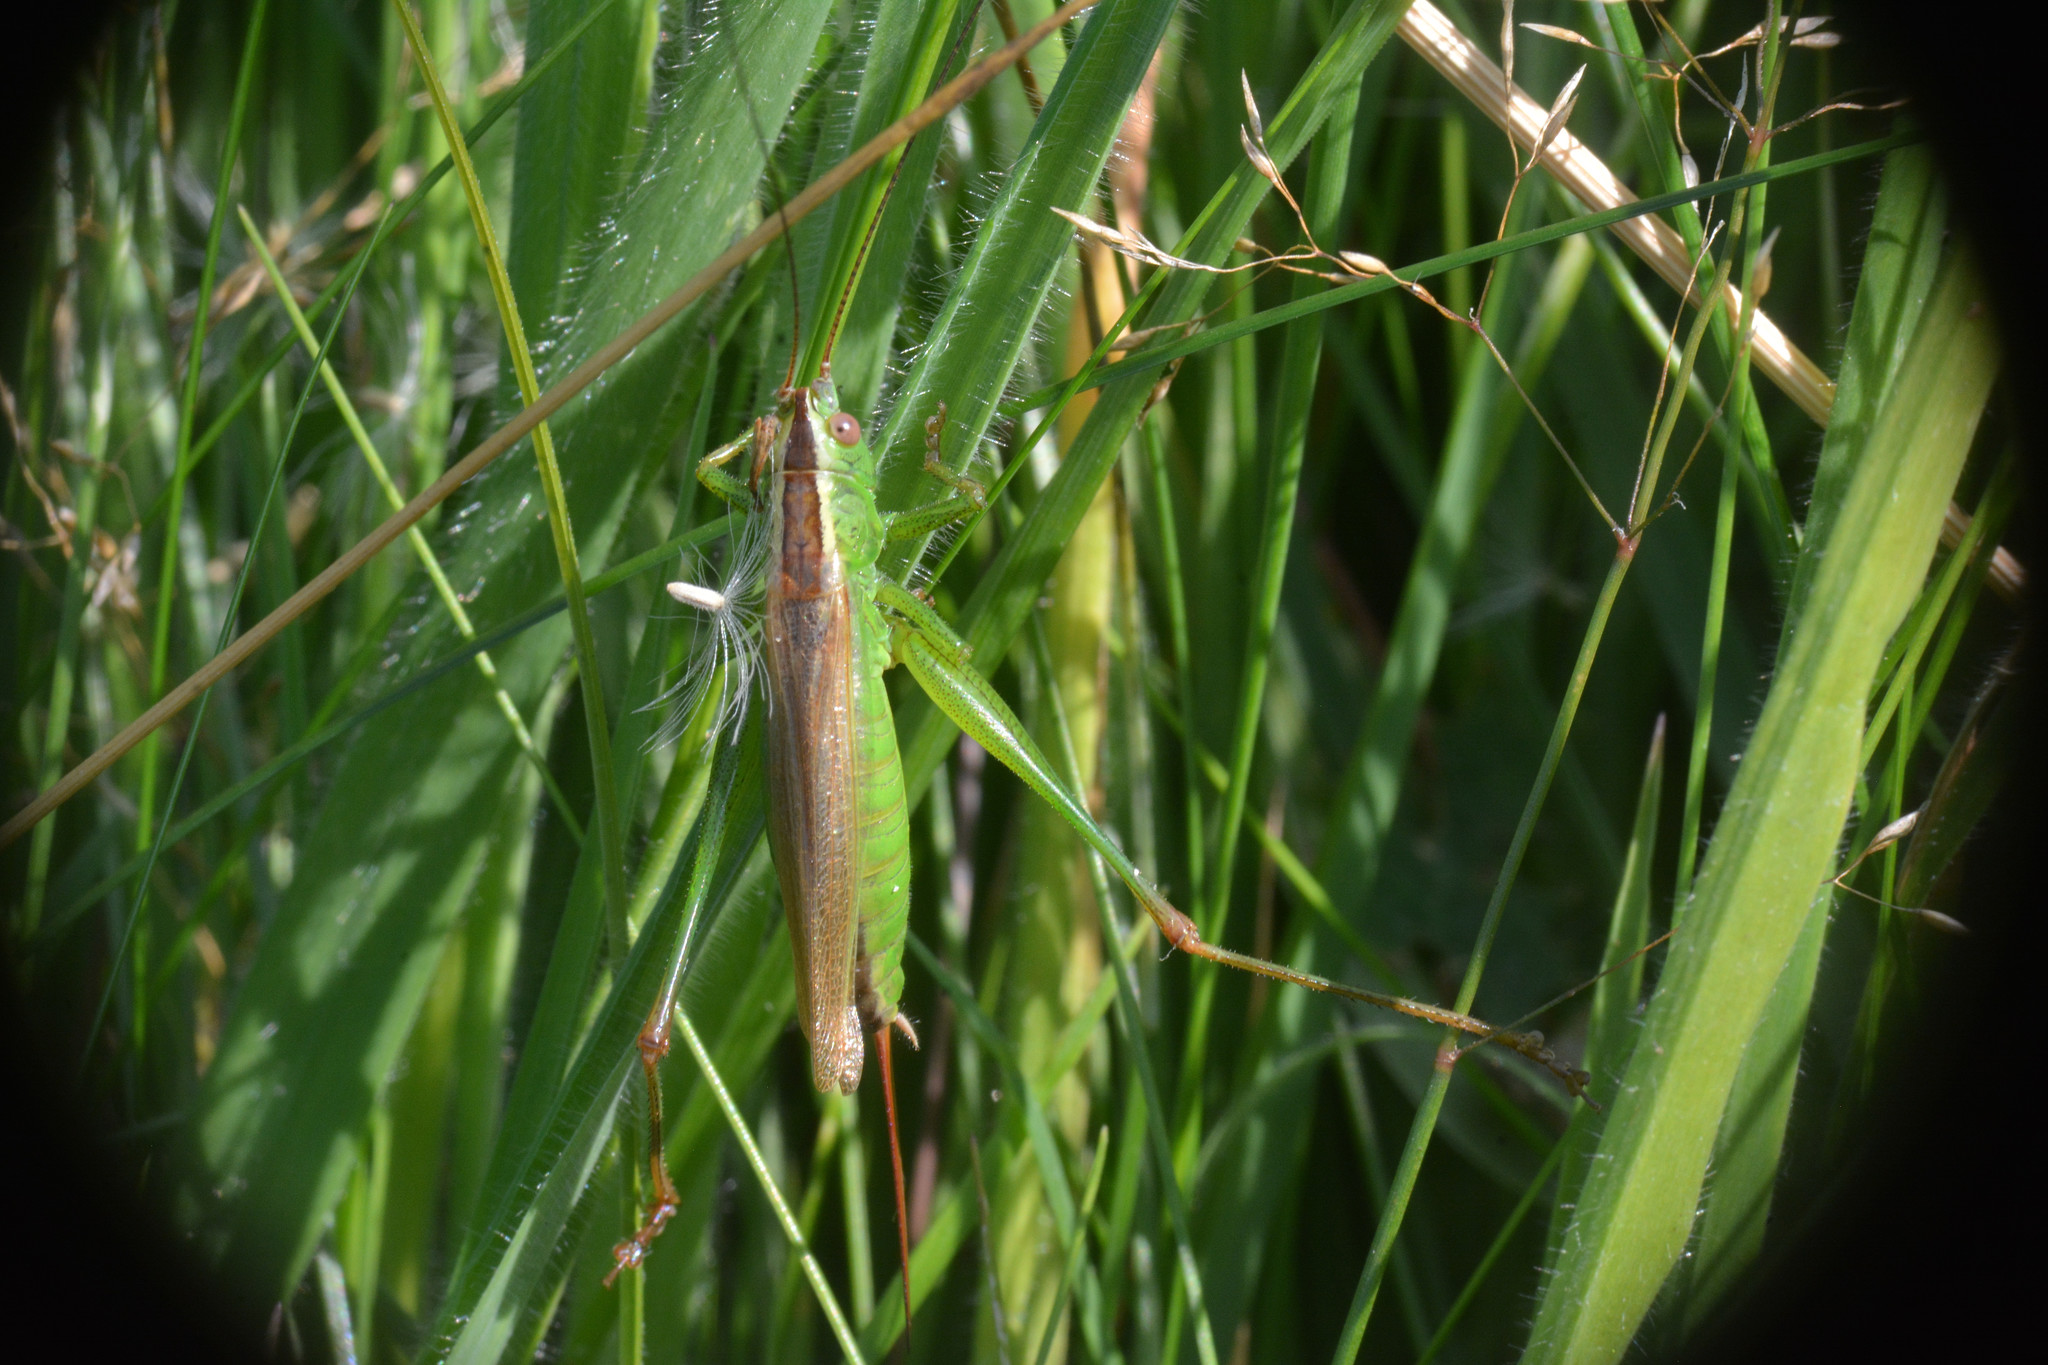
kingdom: Animalia
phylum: Arthropoda
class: Insecta
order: Orthoptera
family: Tettigoniidae
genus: Conocephalus
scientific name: Conocephalus fuscus
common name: Long-winged conehead
